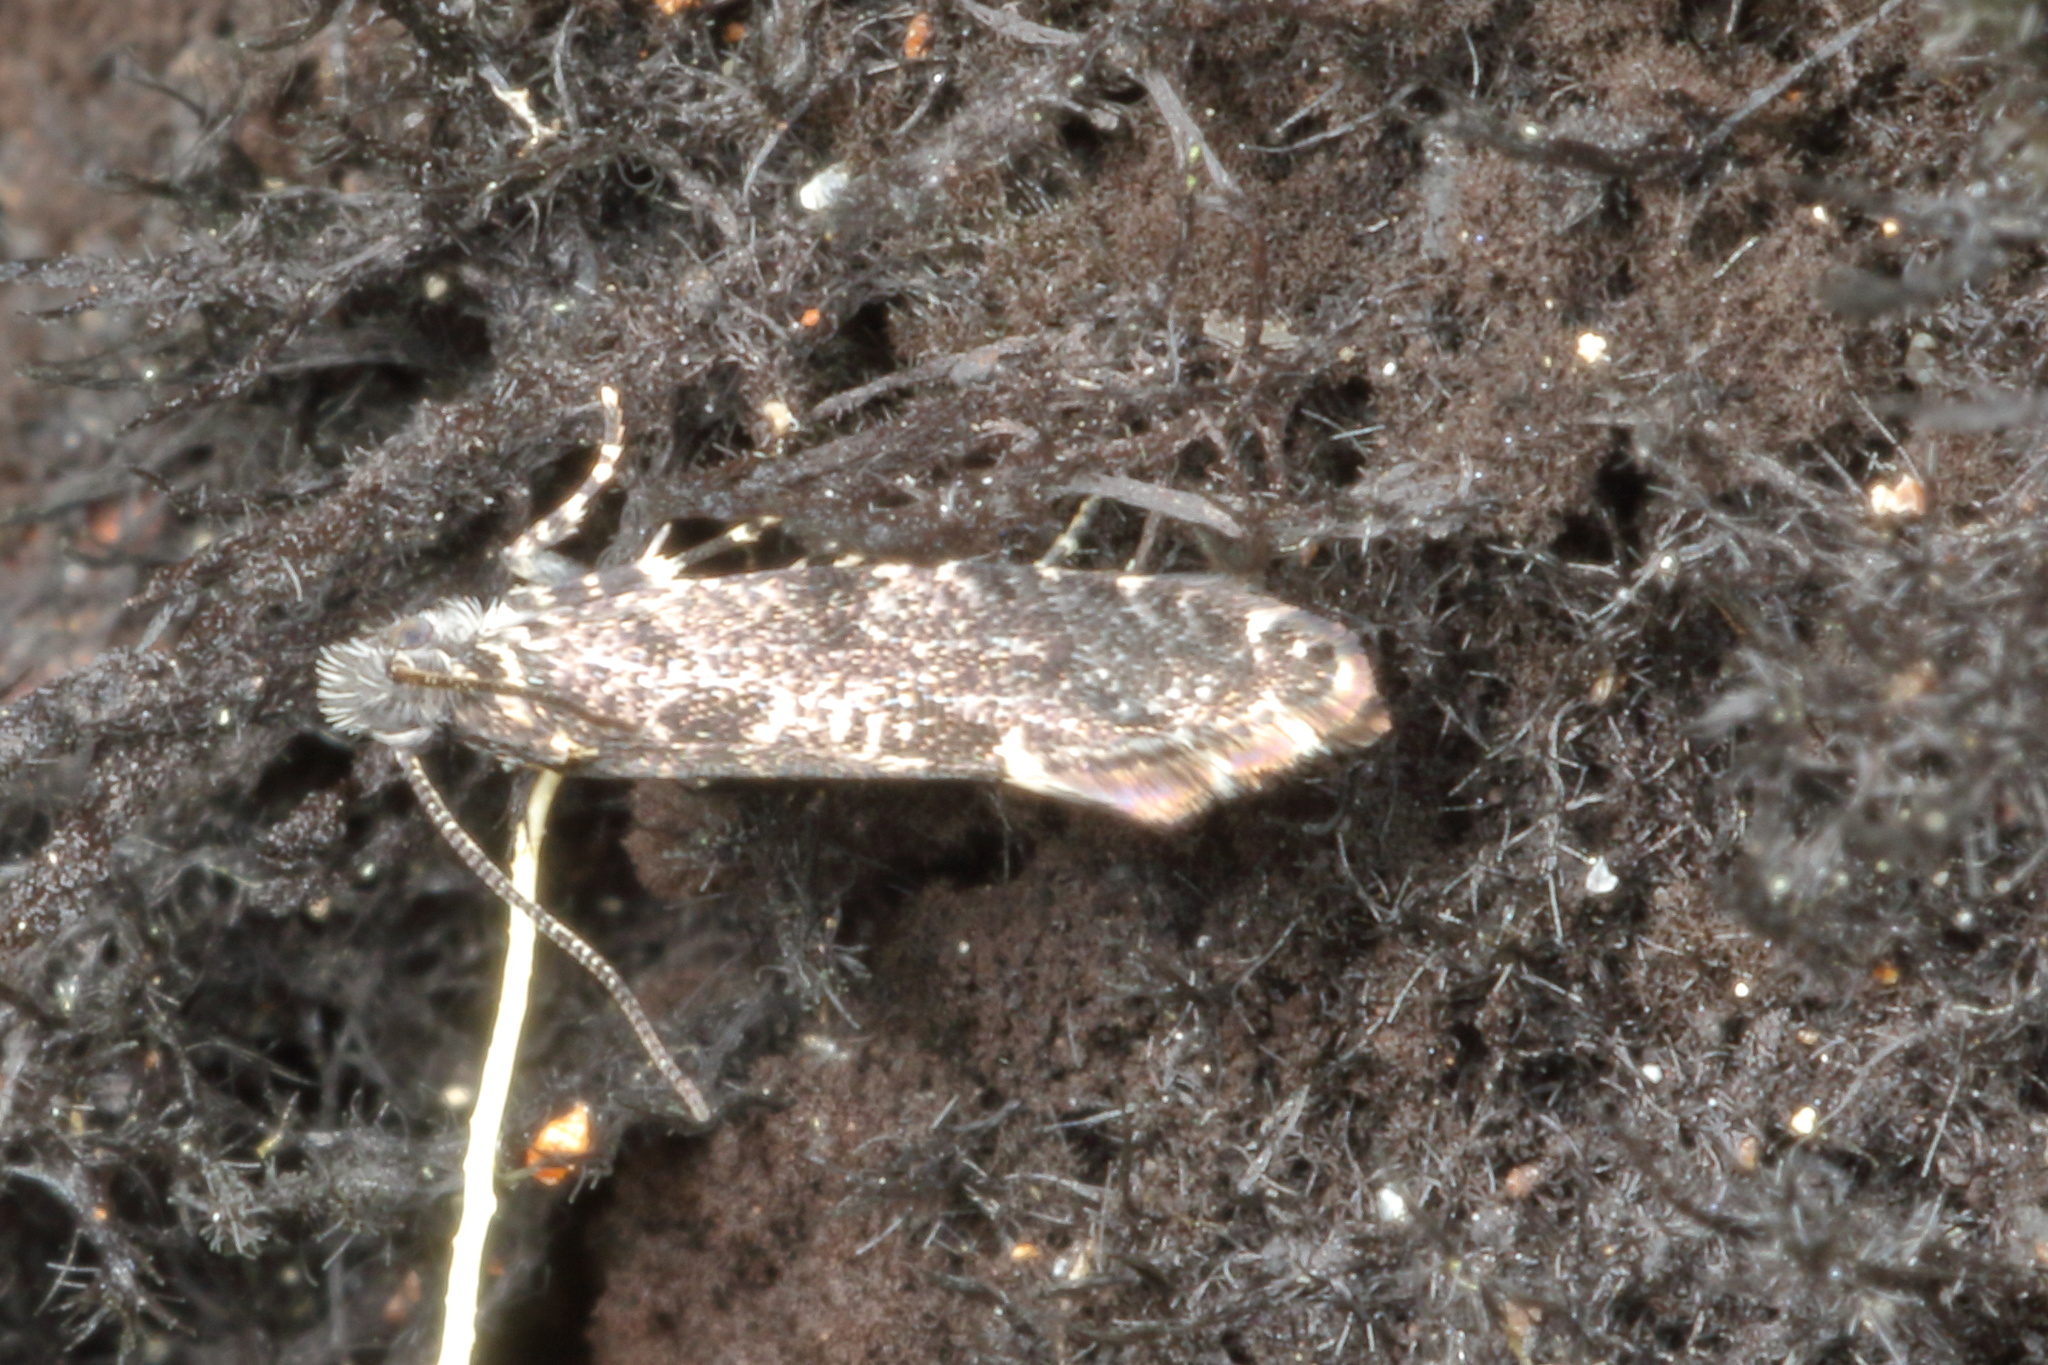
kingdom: Animalia
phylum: Arthropoda
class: Insecta
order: Lepidoptera
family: Tineidae
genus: Tinea
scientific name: Tinea fagicola
